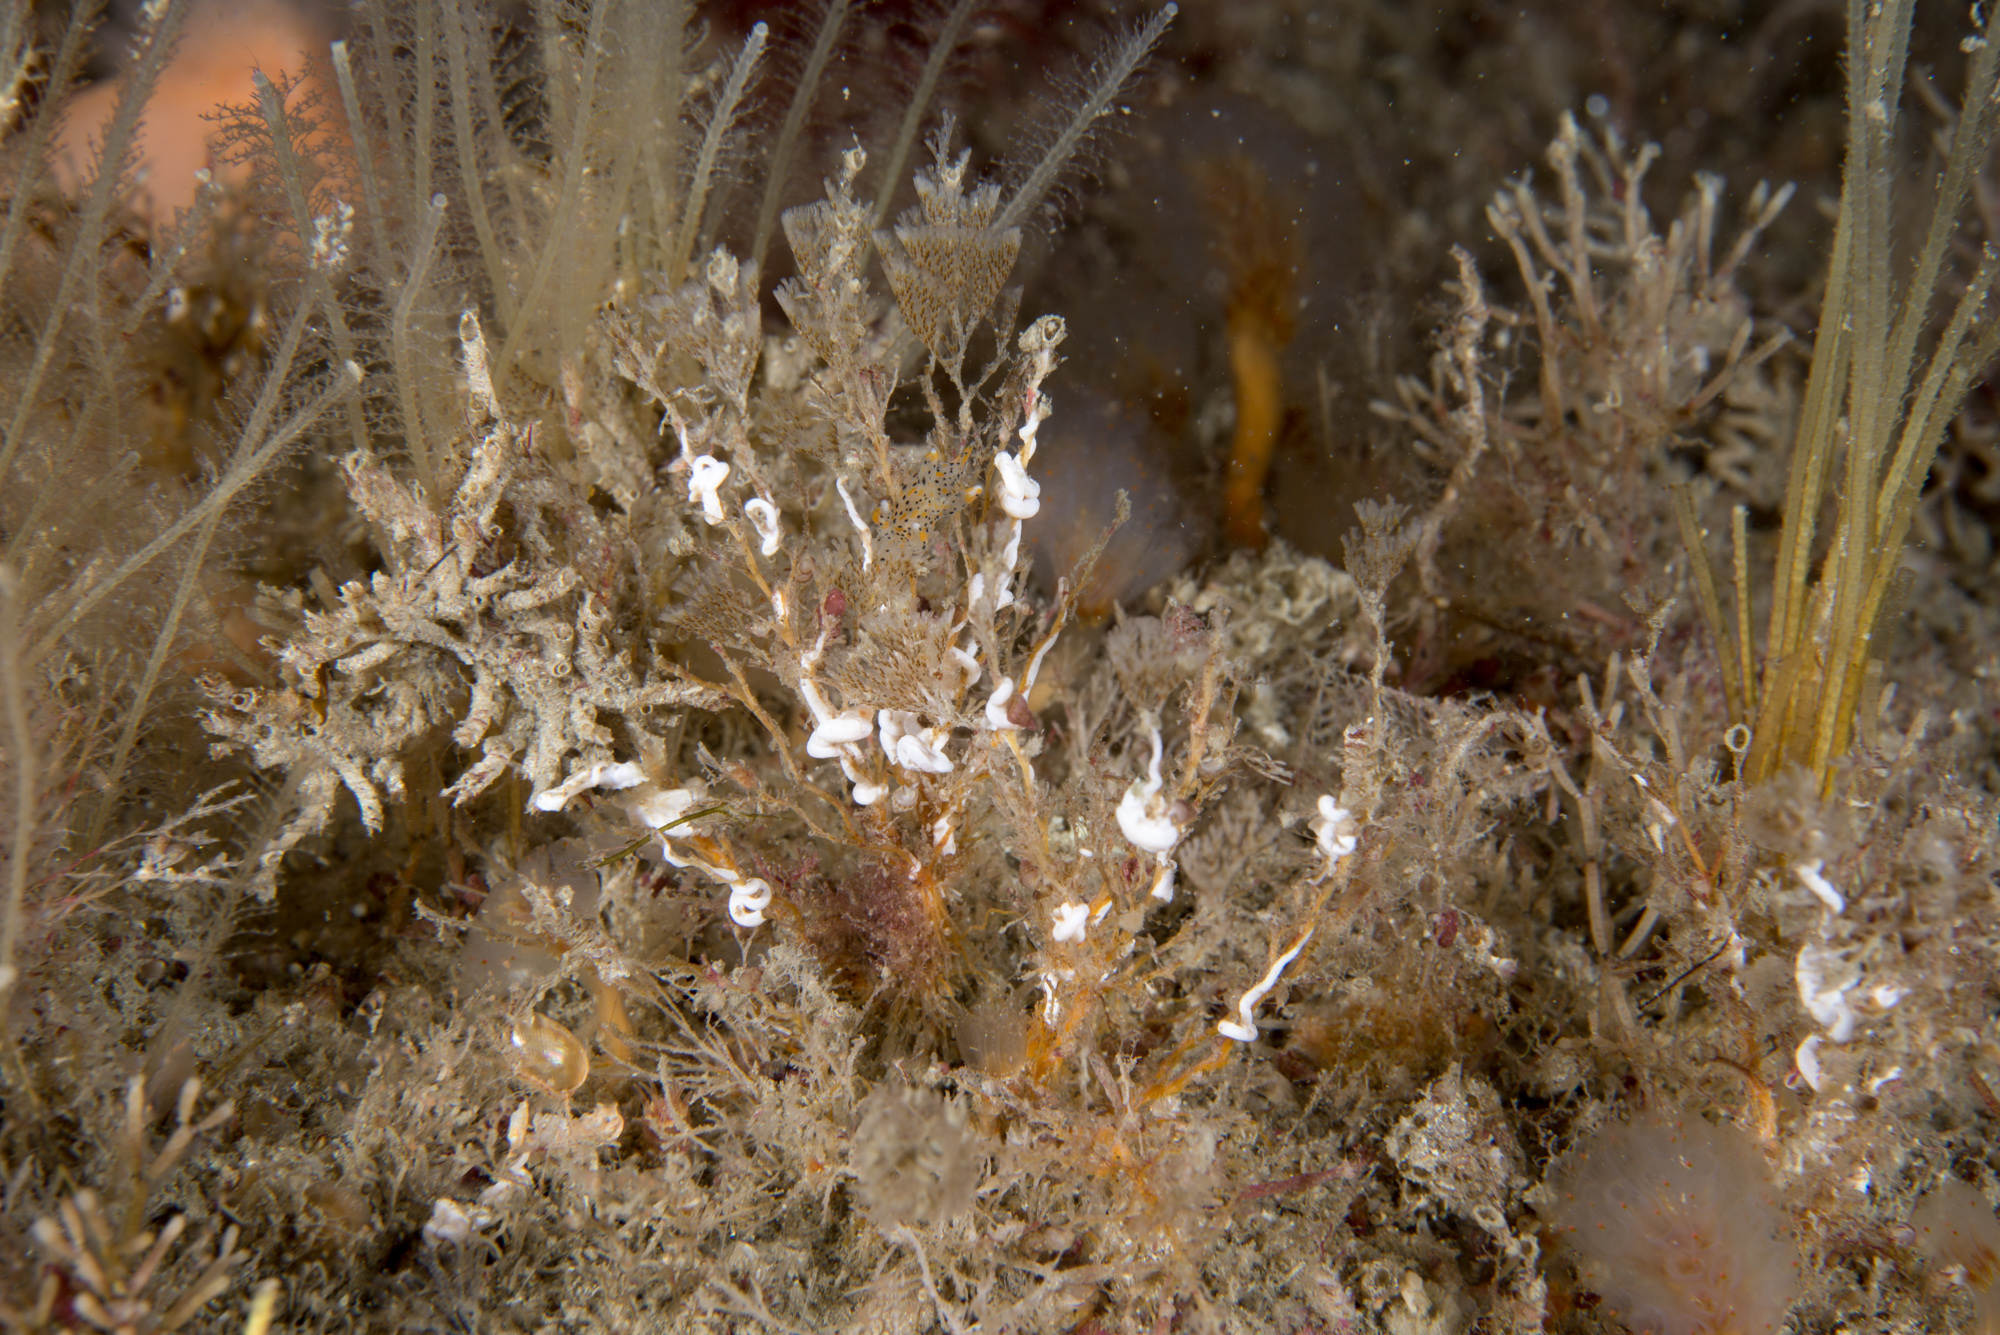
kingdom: Animalia
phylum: Bryozoa
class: Gymnolaemata
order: Cheilostomatida
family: Bugulidae
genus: Crisularia
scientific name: Crisularia plumosa
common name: Feather bryozoan
